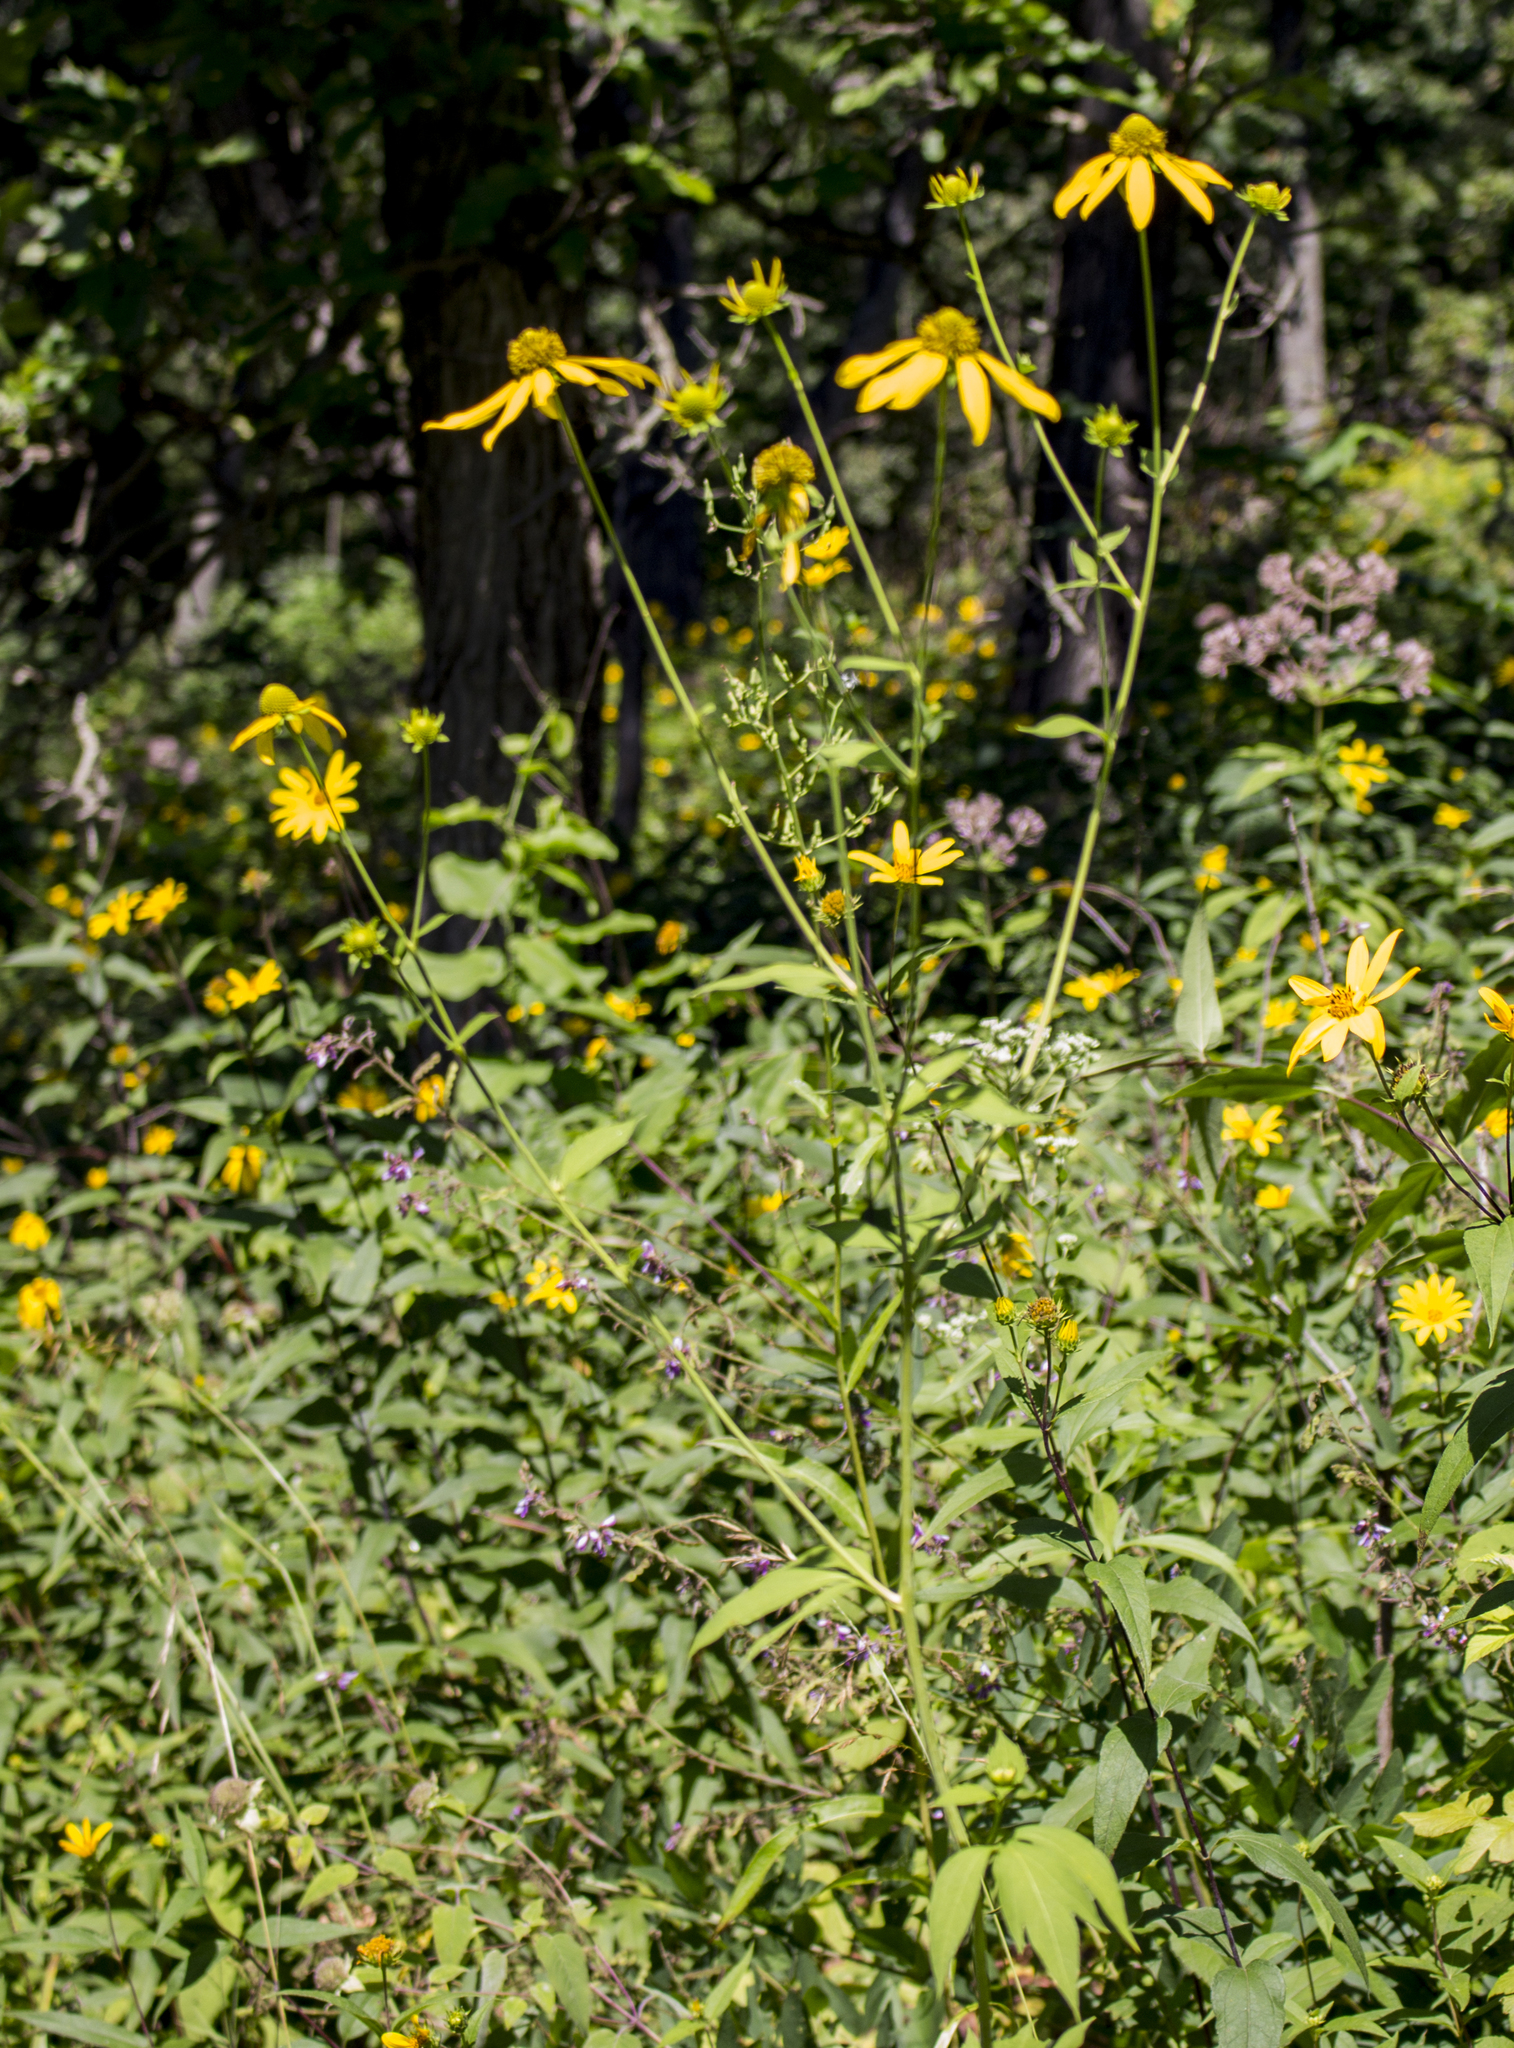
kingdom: Plantae
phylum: Tracheophyta
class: Magnoliopsida
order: Asterales
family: Asteraceae
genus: Rudbeckia
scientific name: Rudbeckia laciniata
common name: Coneflower
